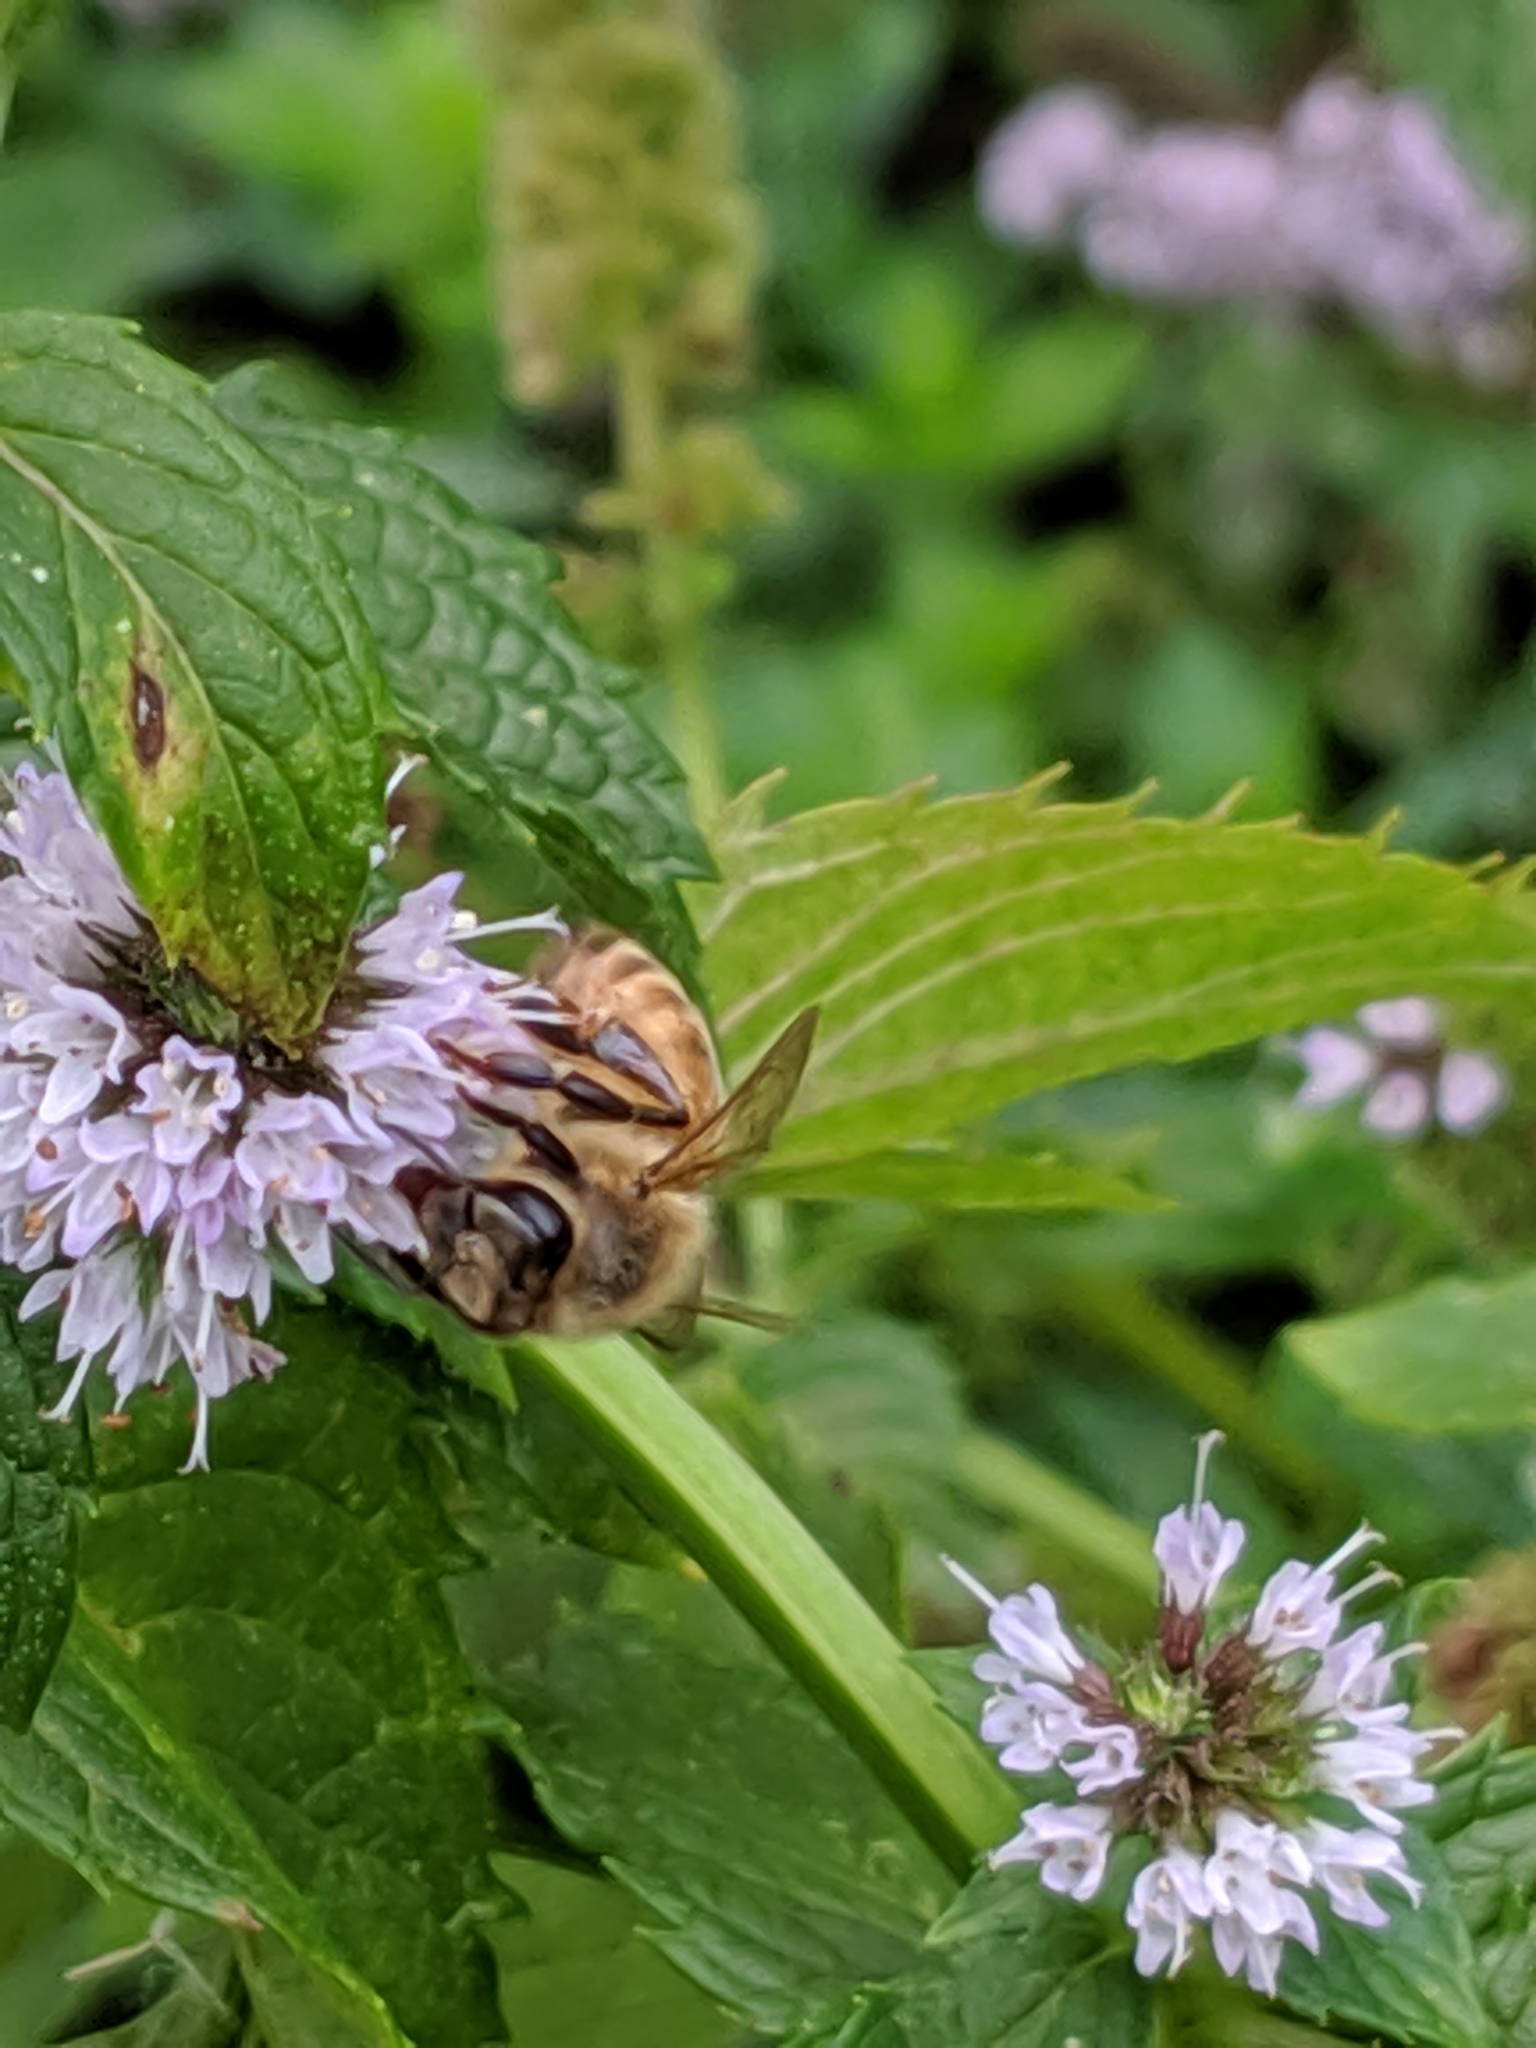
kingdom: Animalia
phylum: Arthropoda
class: Insecta
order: Hymenoptera
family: Apidae
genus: Apis
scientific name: Apis mellifera
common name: Honey bee
